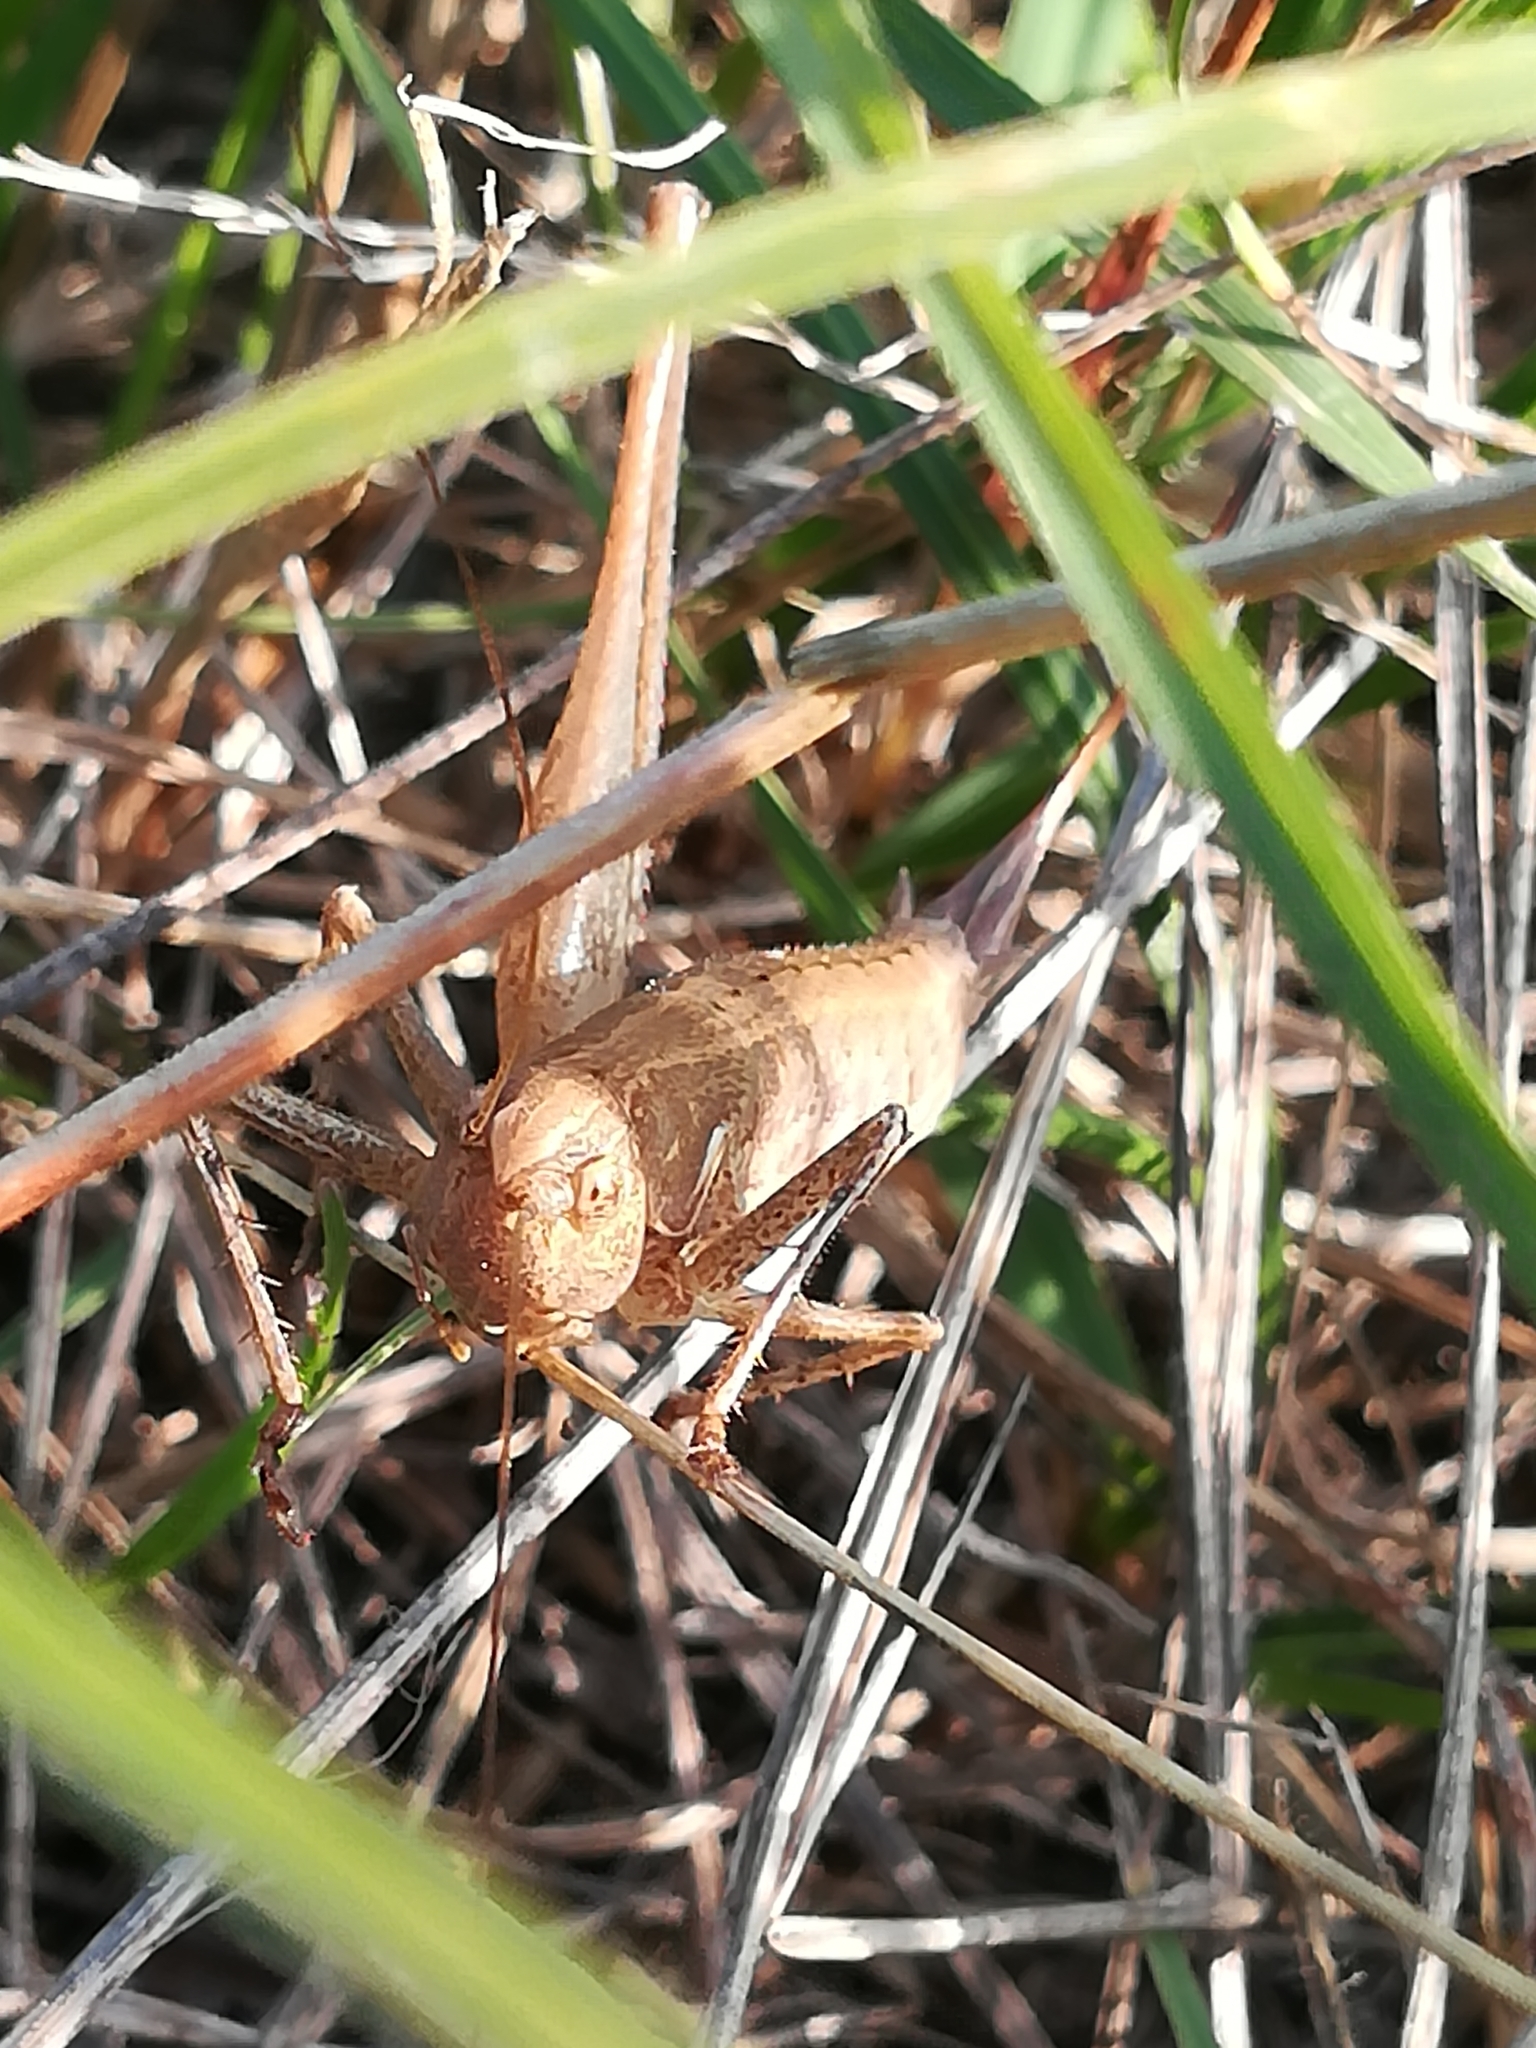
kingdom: Animalia
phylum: Arthropoda
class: Insecta
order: Orthoptera
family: Tettigoniidae
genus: Rhacocleis
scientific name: Rhacocleis germanica
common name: Mediterranean bush-cricket
